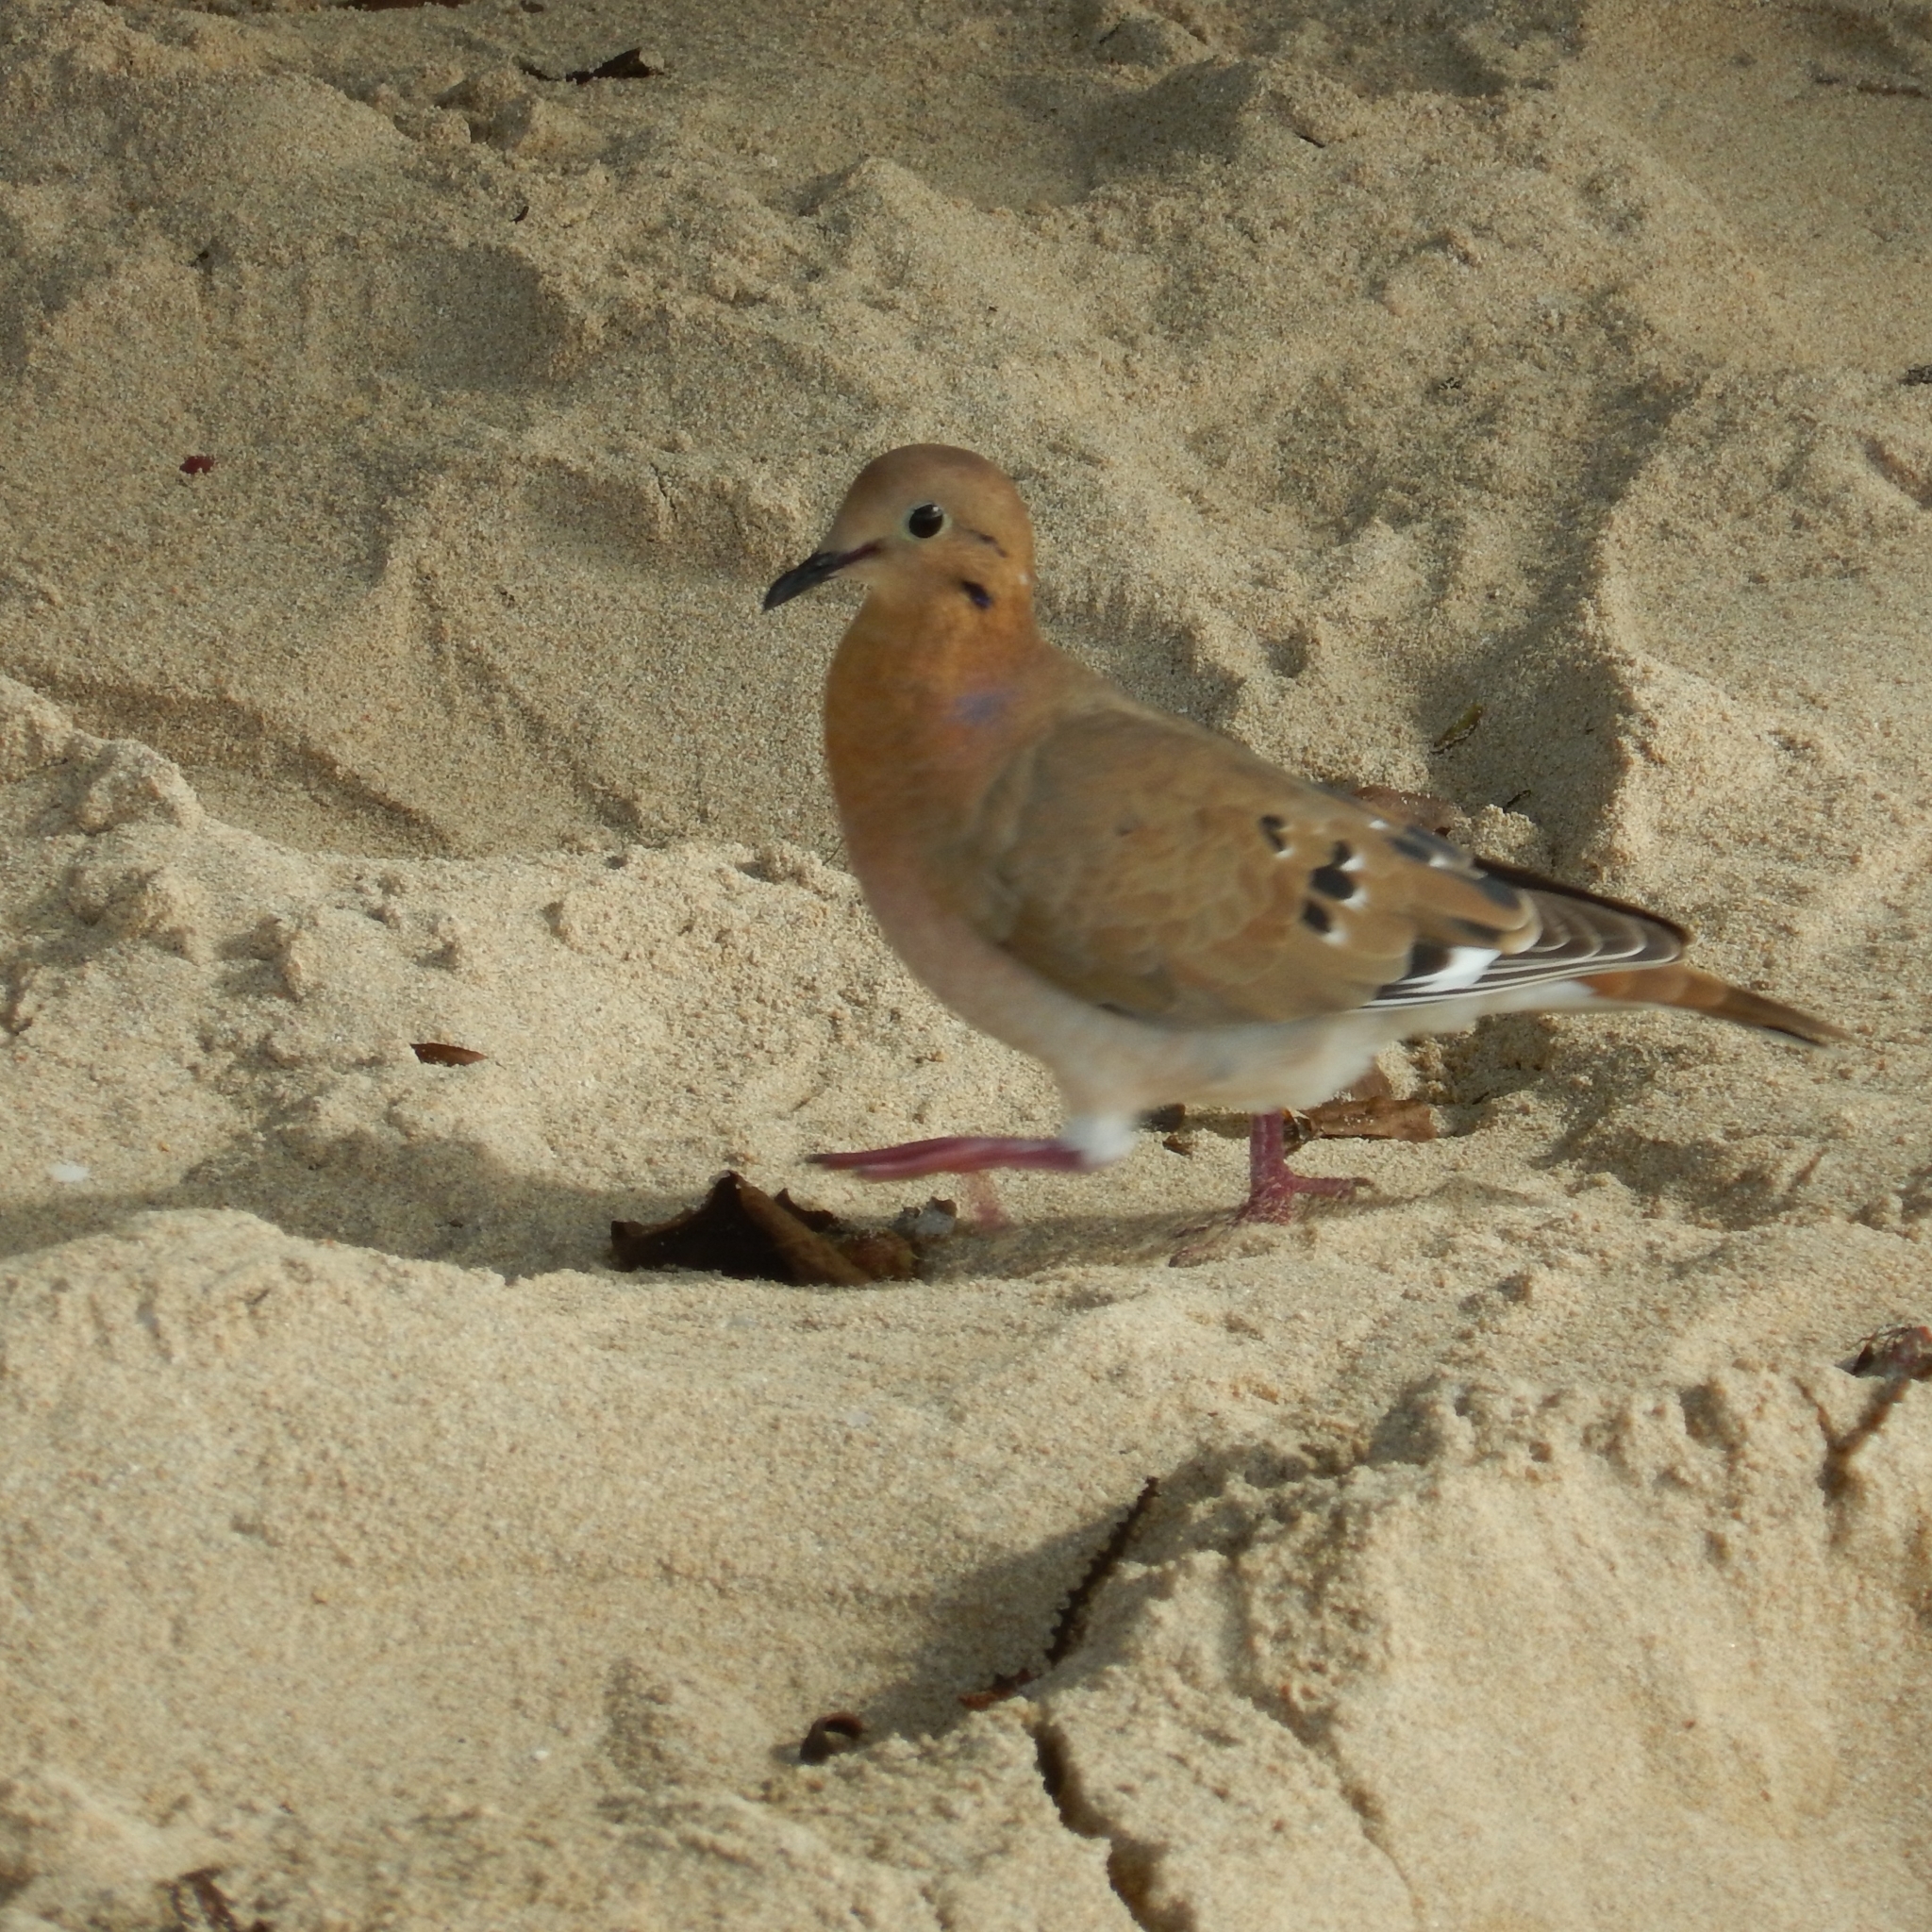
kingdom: Animalia
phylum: Chordata
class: Aves
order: Columbiformes
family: Columbidae
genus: Zenaida
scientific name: Zenaida aurita
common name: Zenaida dove
